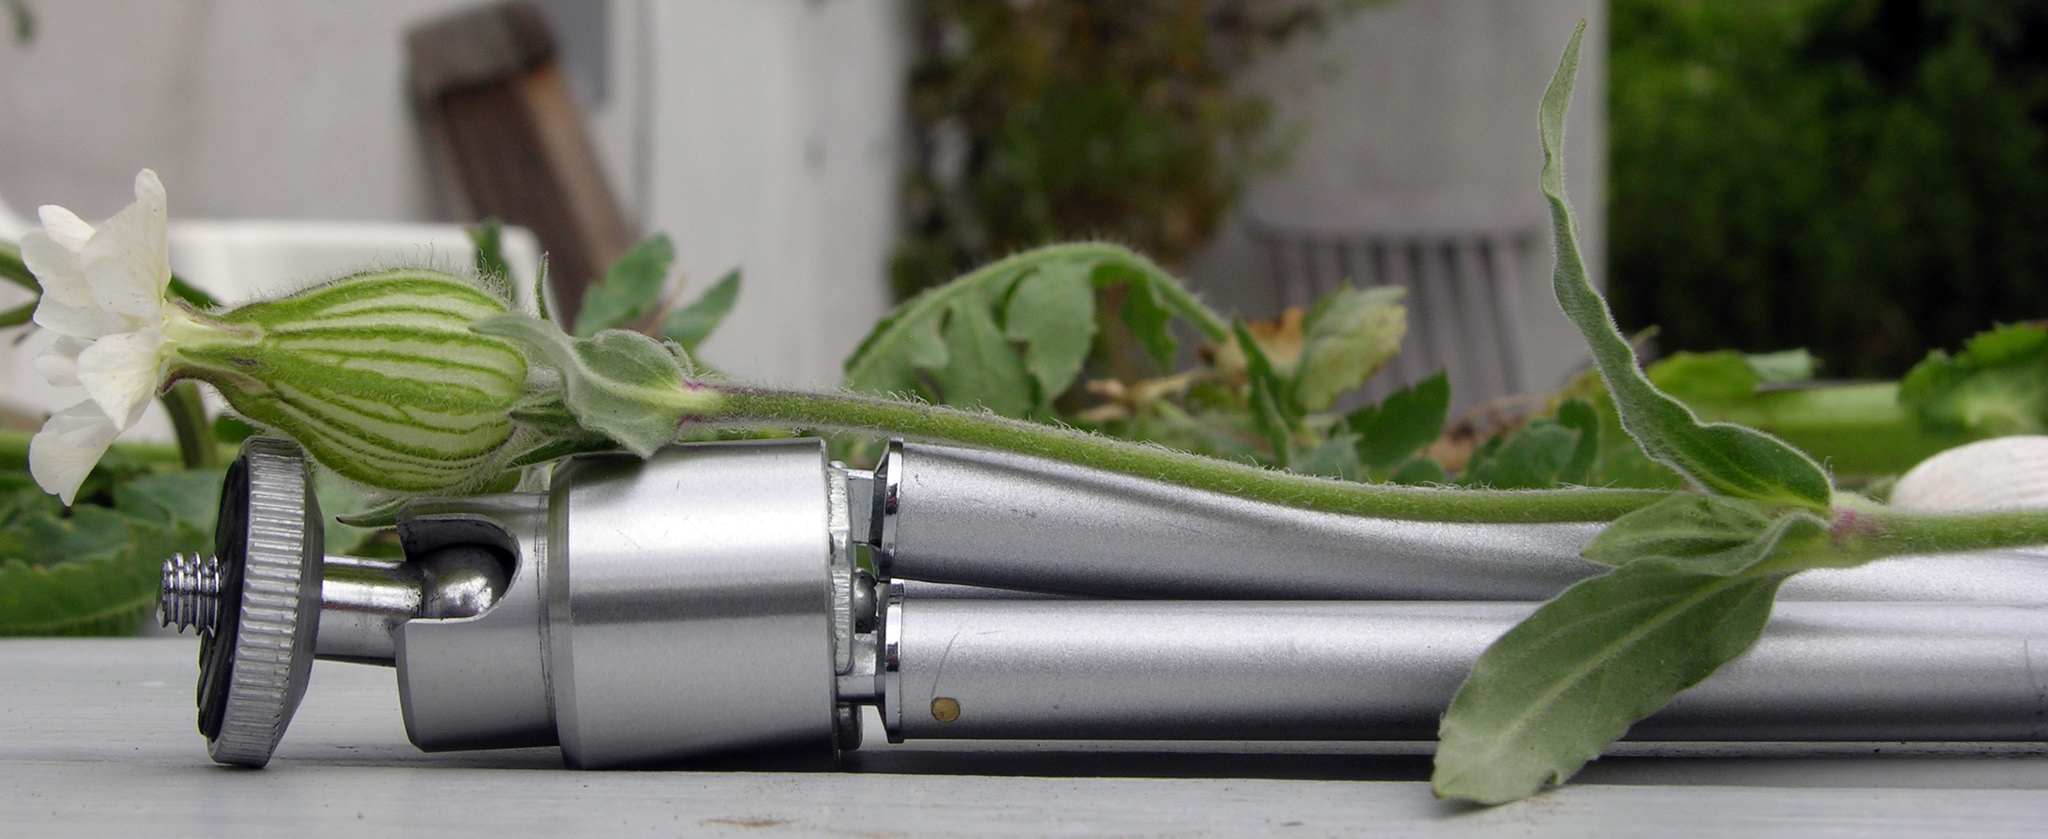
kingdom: Plantae
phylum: Tracheophyta
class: Magnoliopsida
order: Caryophyllales
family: Caryophyllaceae
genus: Silene
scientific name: Silene latifolia
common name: White campion
